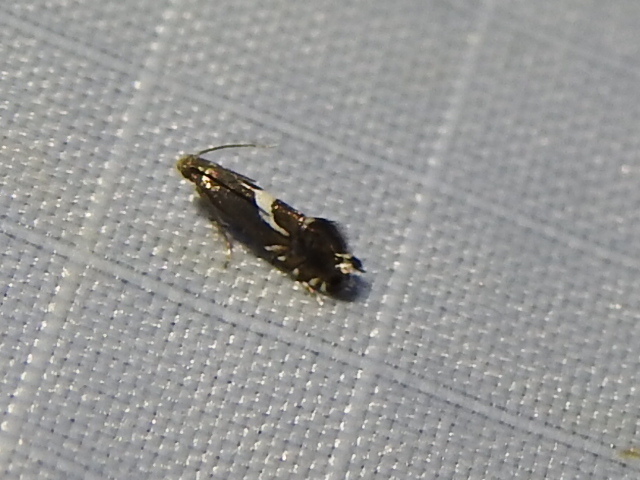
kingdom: Animalia
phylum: Arthropoda
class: Insecta
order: Lepidoptera
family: Glyphipterigidae
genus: Glyphipterix
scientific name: Glyphipterix Diploschizia impigritella
